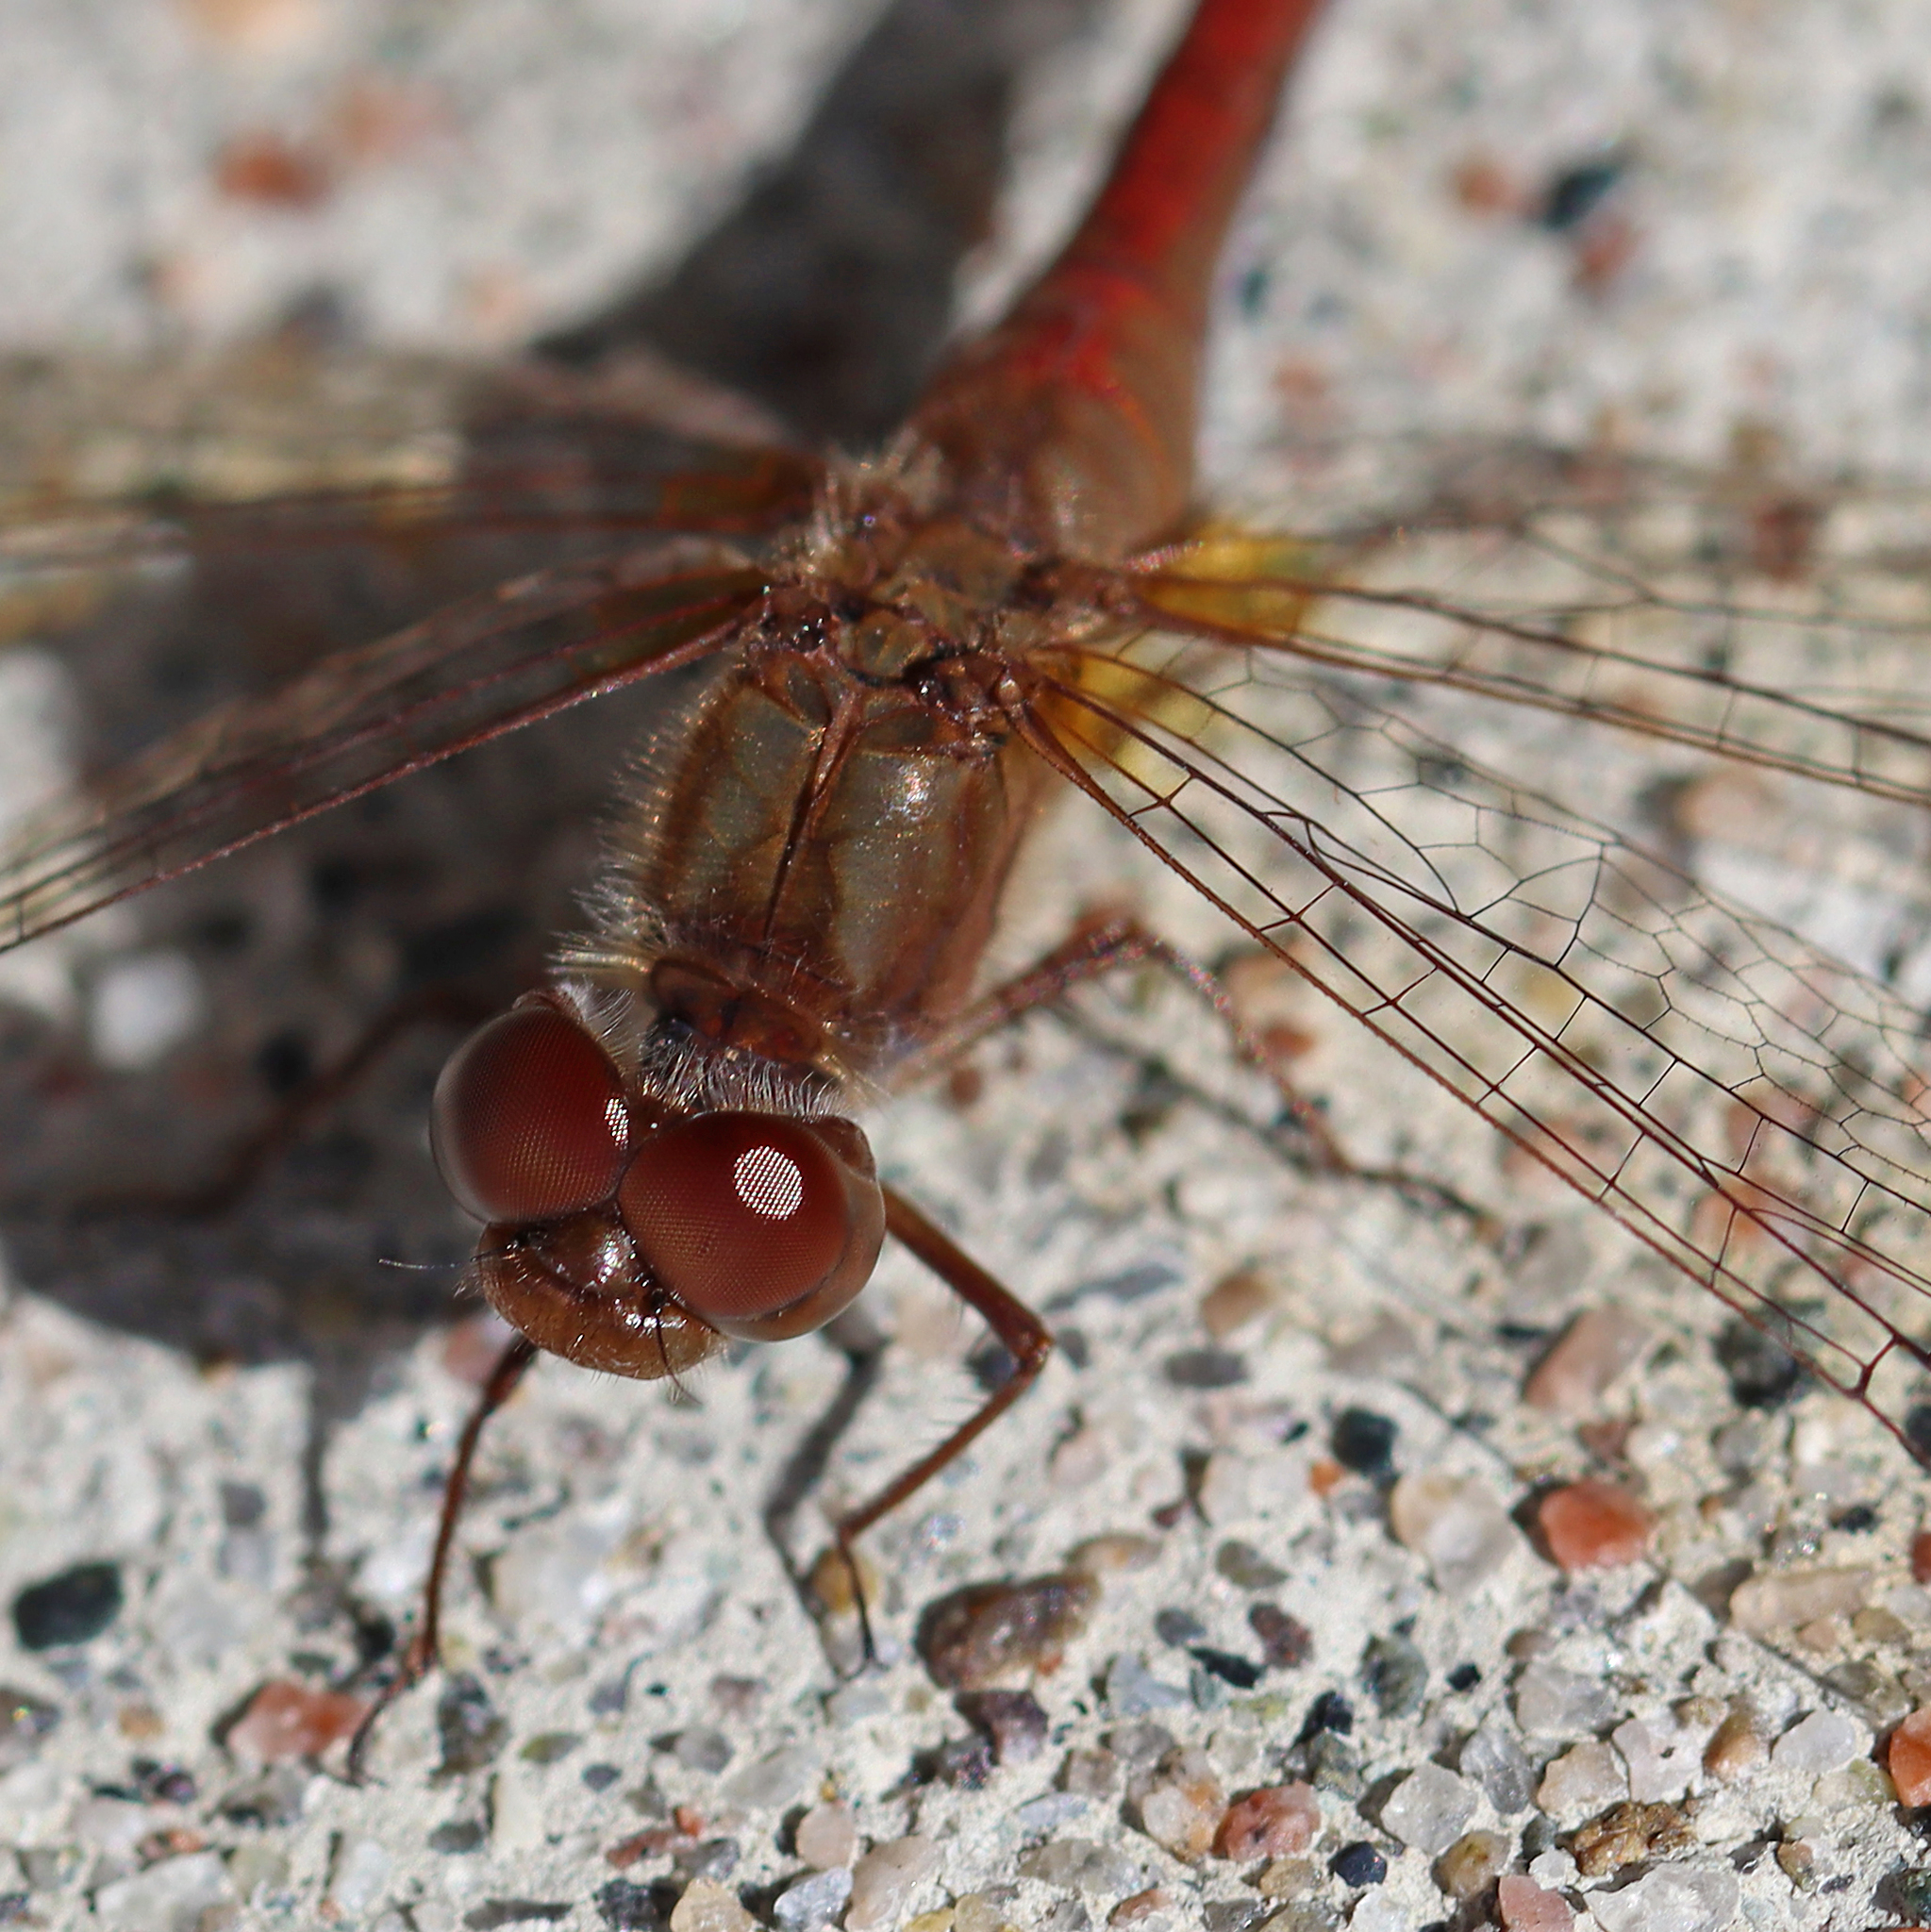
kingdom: Animalia
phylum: Arthropoda
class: Insecta
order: Odonata
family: Libellulidae
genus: Sympetrum
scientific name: Sympetrum vicinum
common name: Autumn meadowhawk
